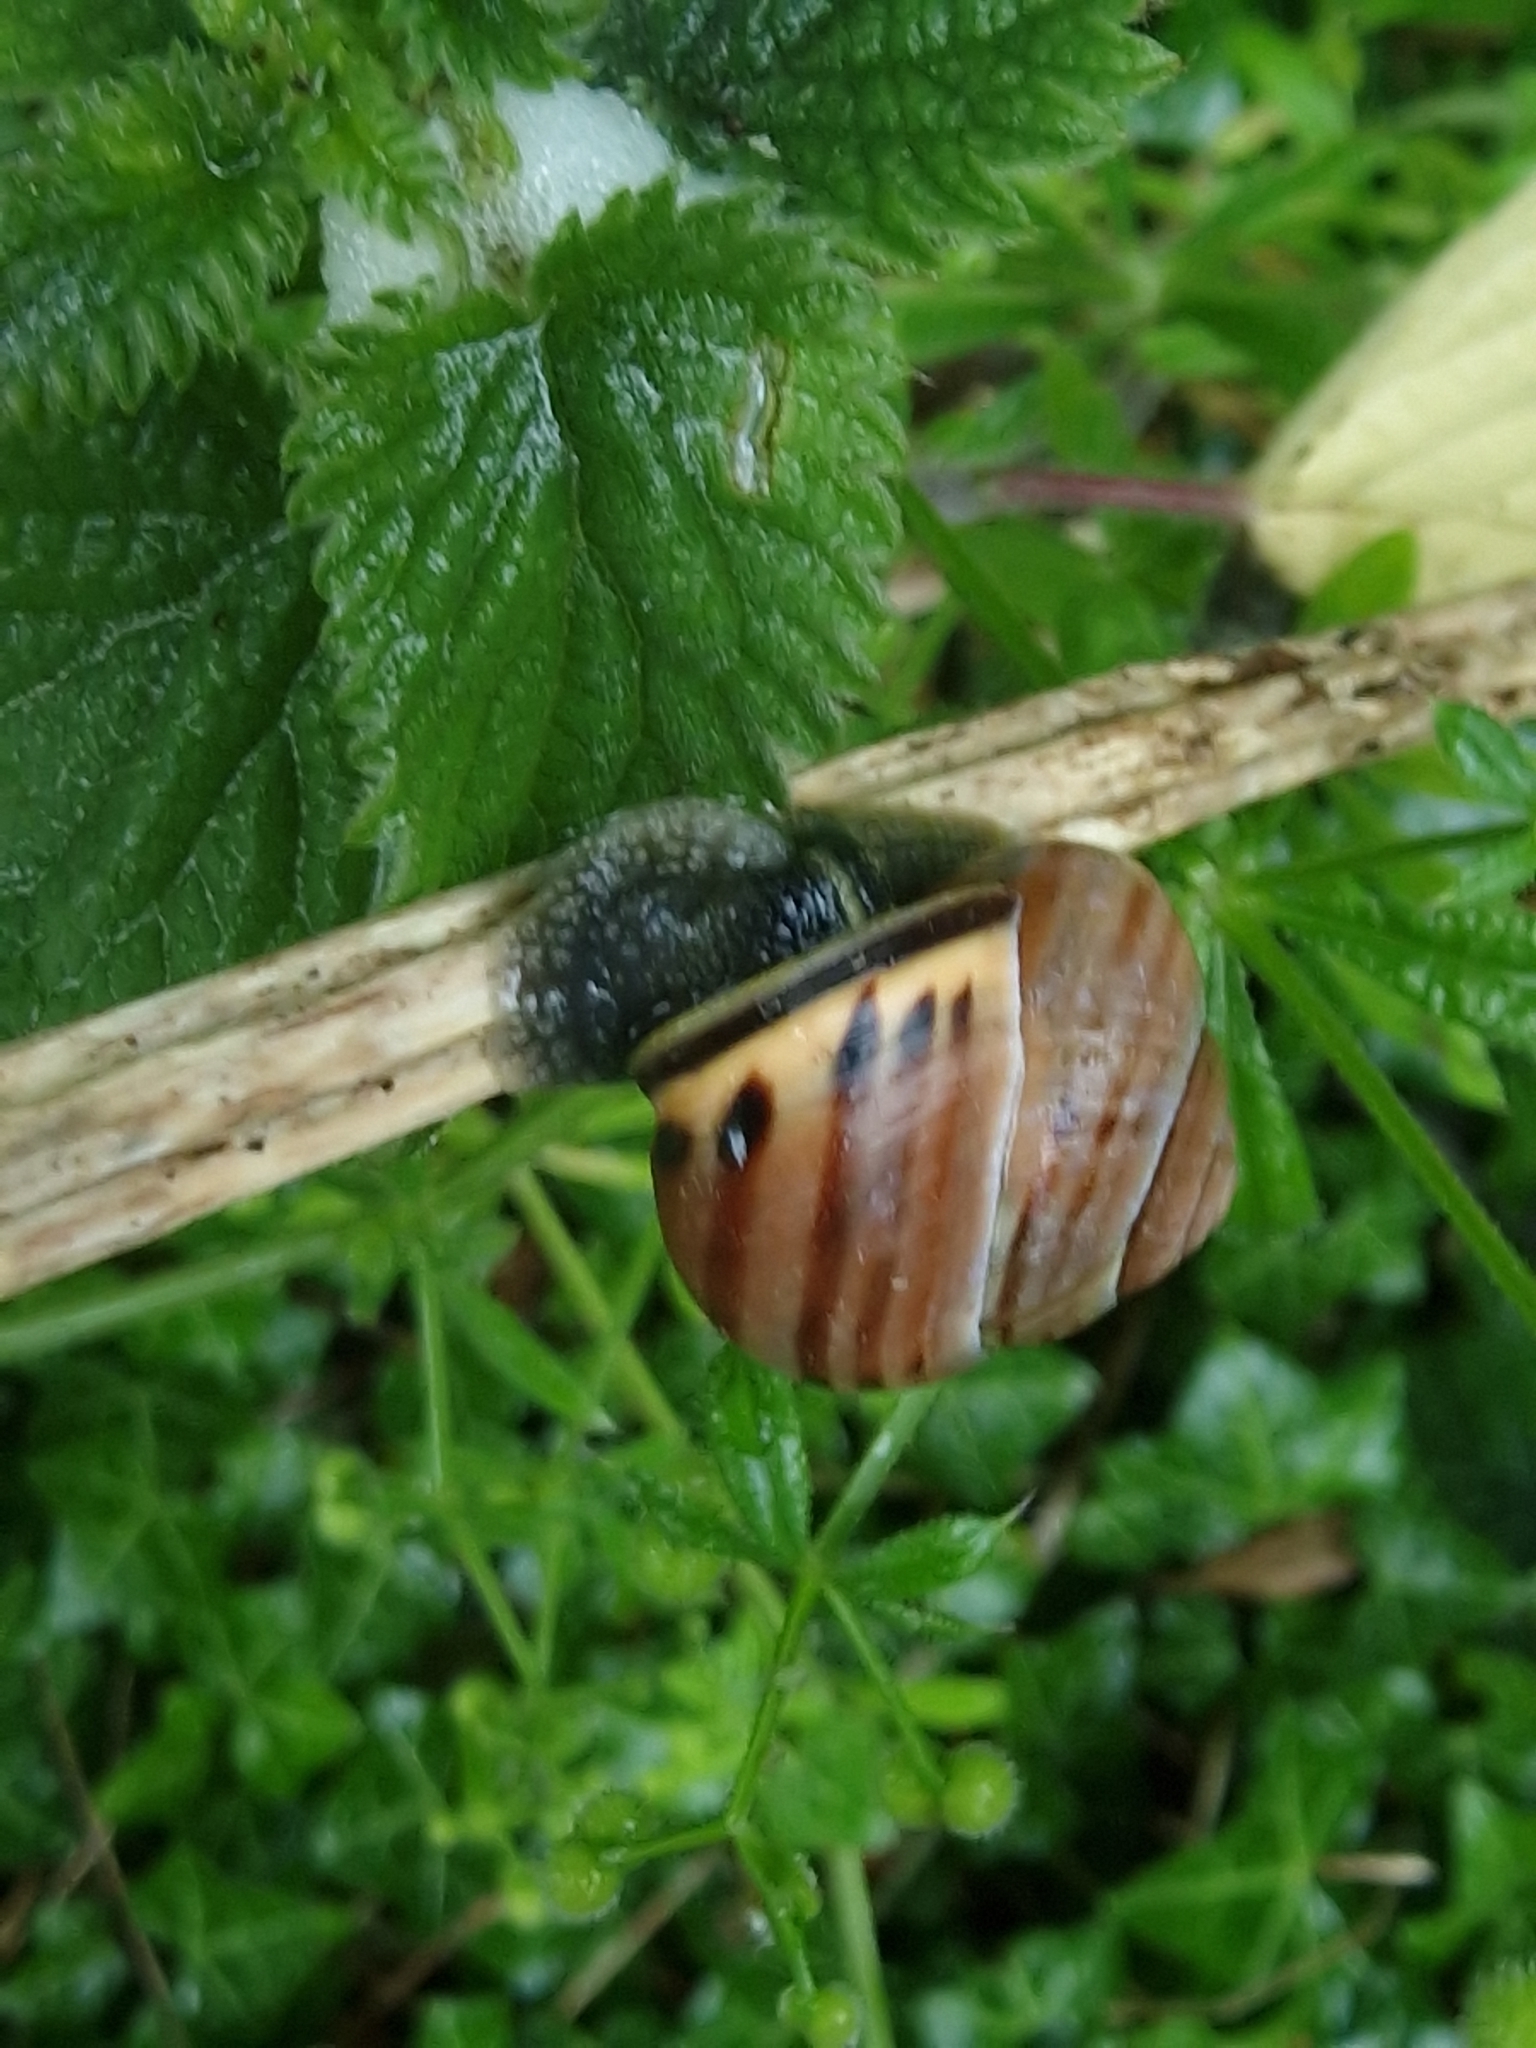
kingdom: Animalia
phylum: Mollusca
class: Gastropoda
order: Stylommatophora
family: Helicidae
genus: Cepaea
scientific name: Cepaea nemoralis
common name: Grovesnail
